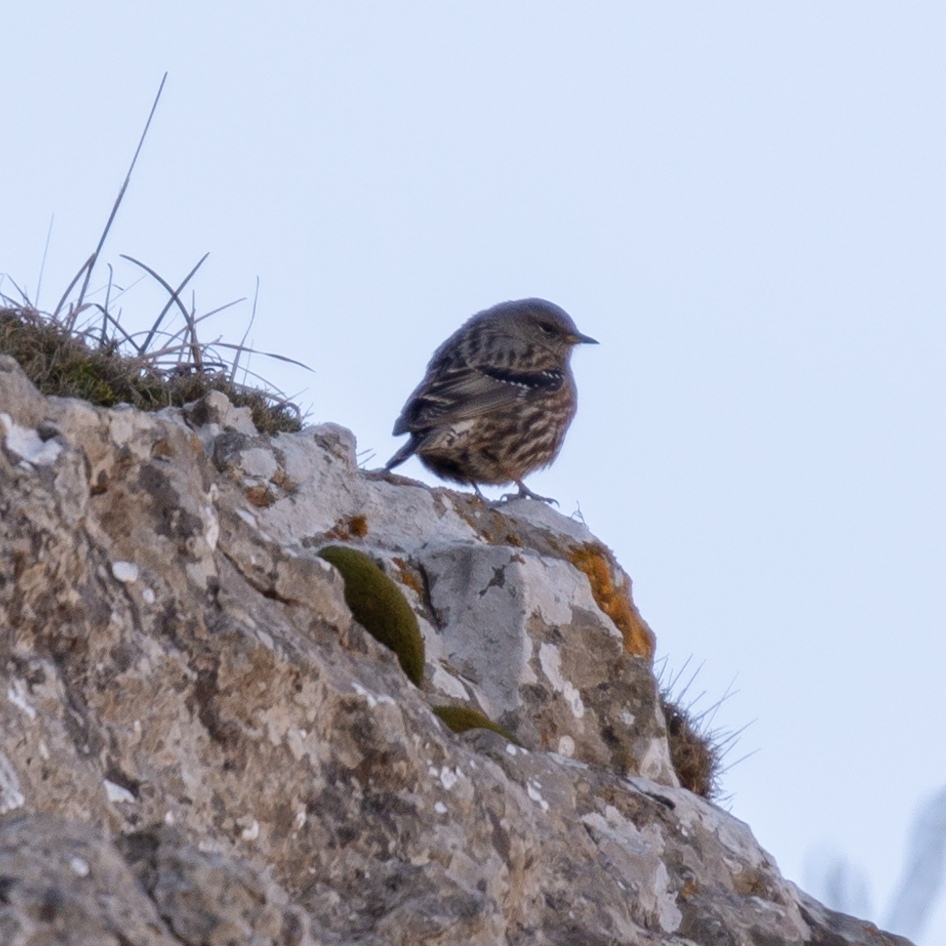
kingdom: Animalia
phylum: Chordata
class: Aves
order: Passeriformes
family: Prunellidae
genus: Prunella
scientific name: Prunella collaris
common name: Alpine accentor
